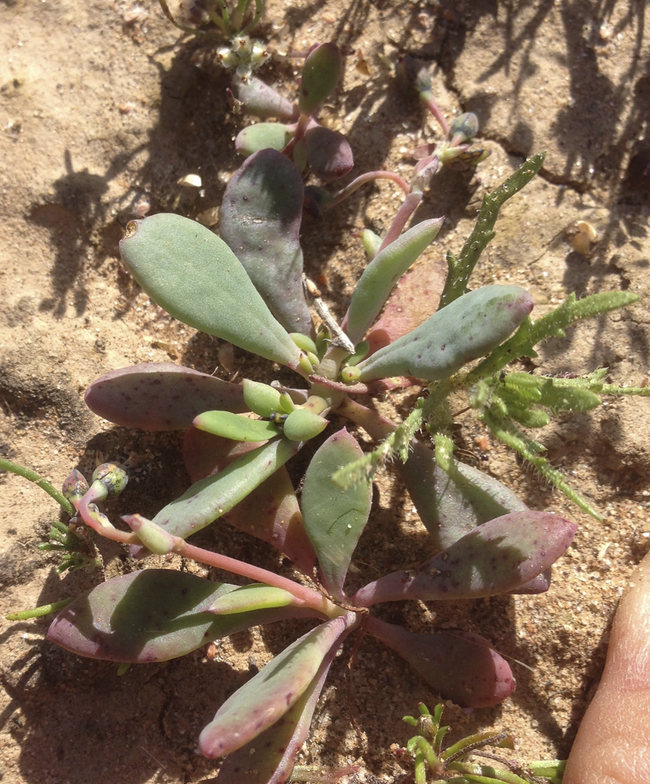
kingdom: Plantae
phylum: Tracheophyta
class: Magnoliopsida
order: Caryophyllales
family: Montiaceae
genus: Cistanthe
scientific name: Cistanthe maritima
